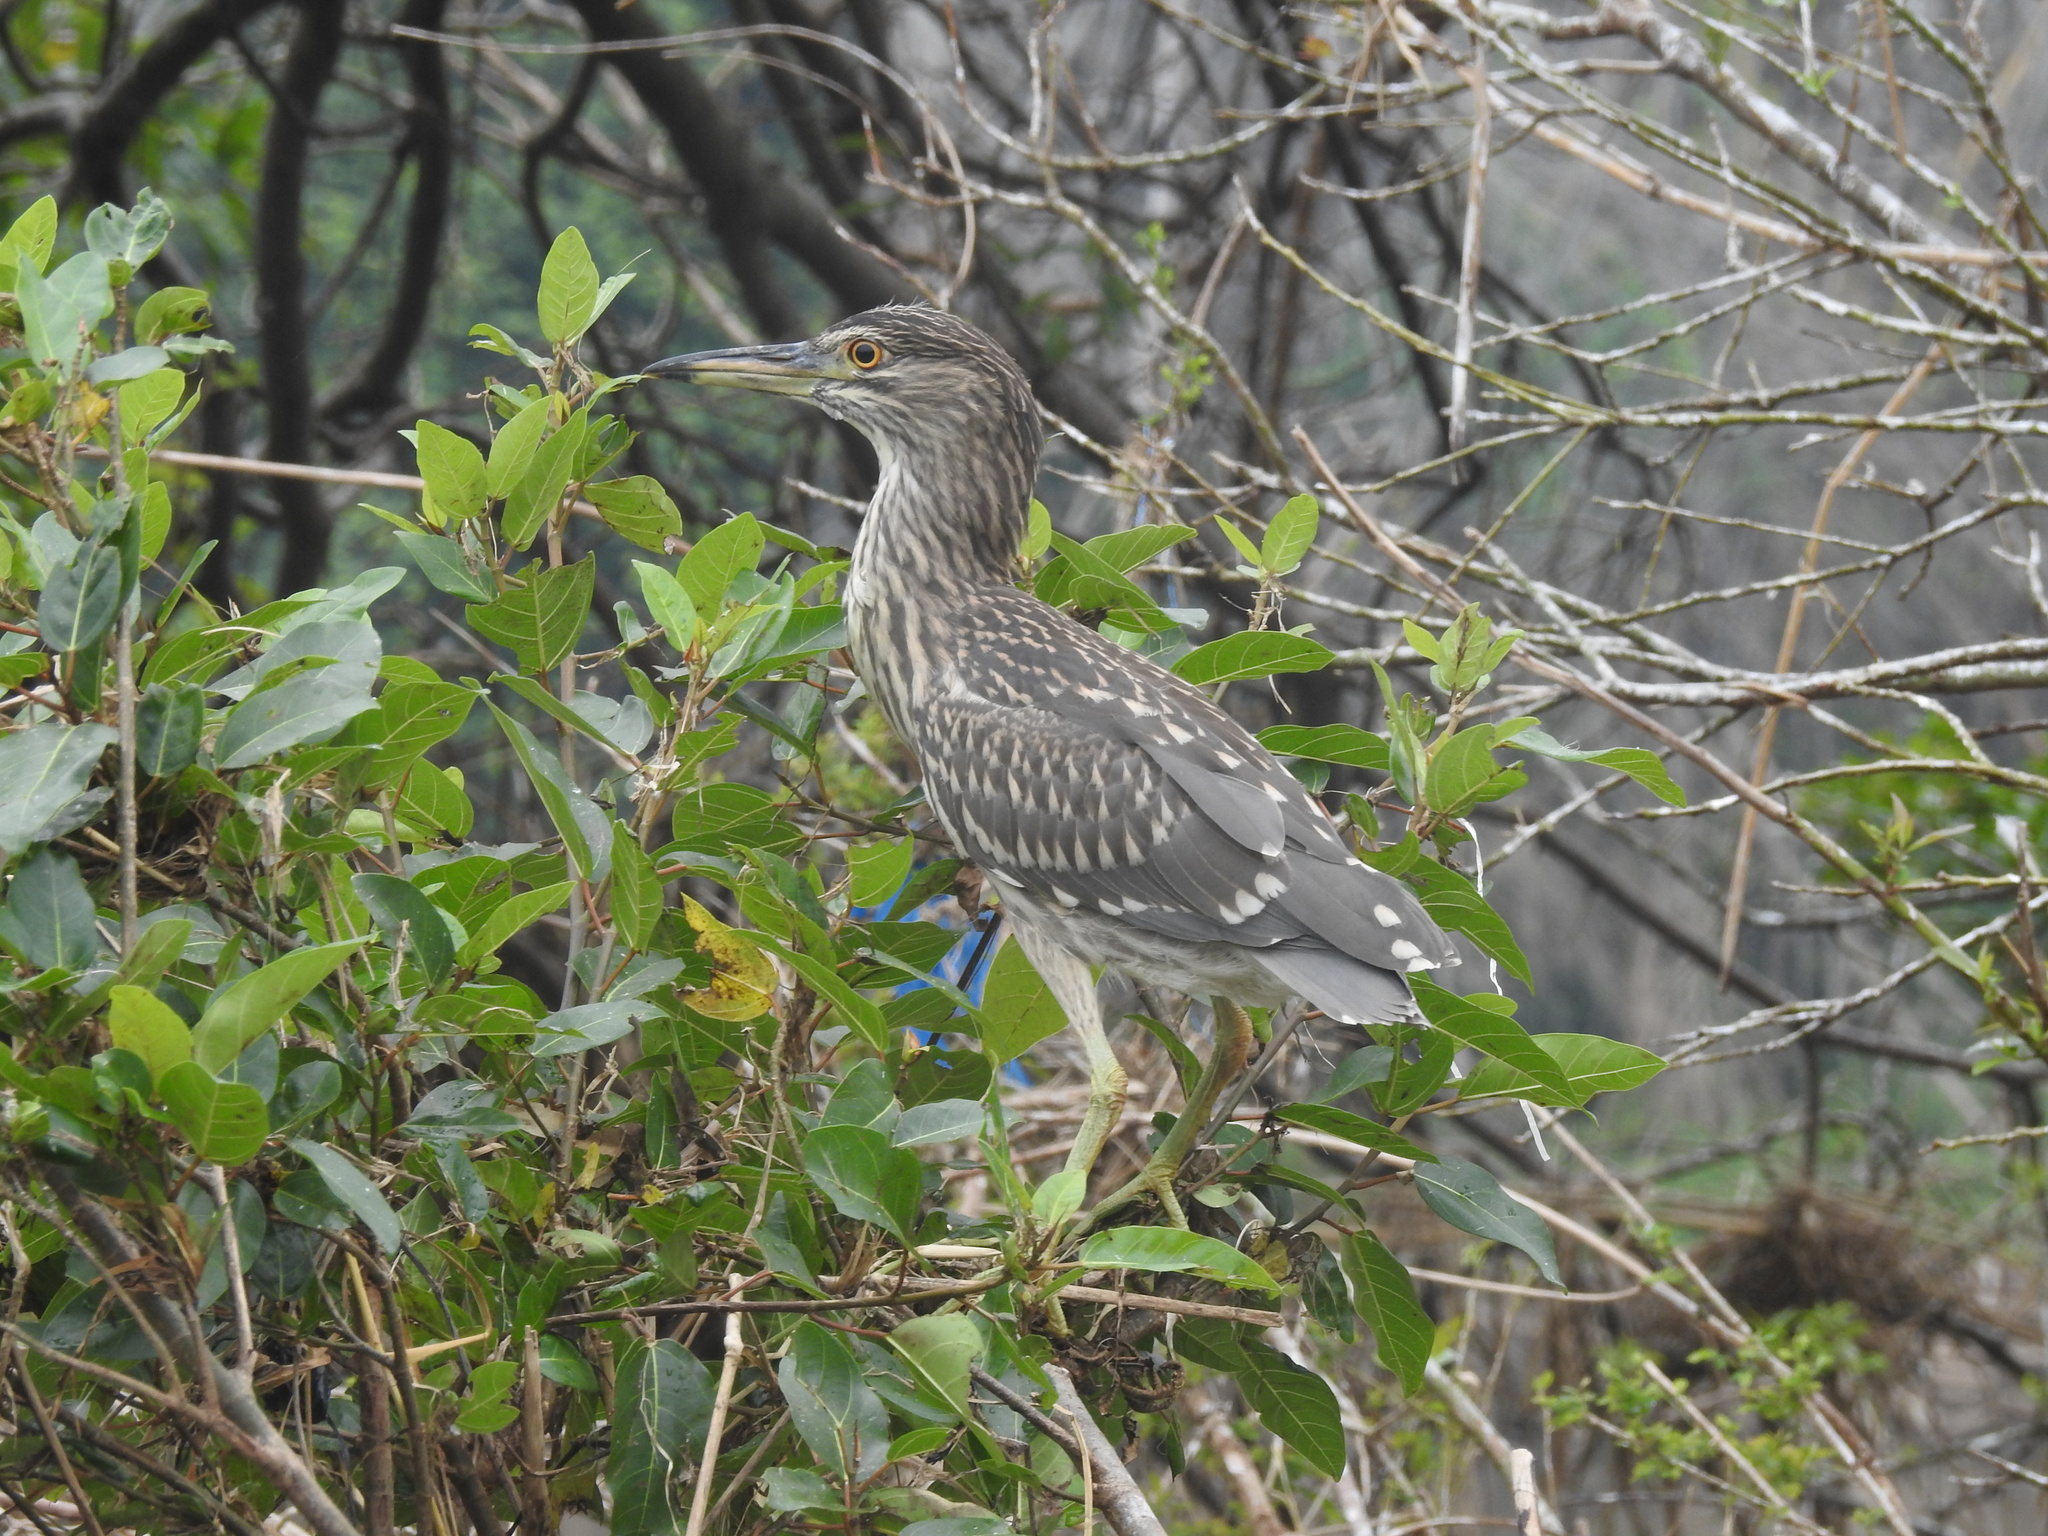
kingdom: Animalia
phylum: Chordata
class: Aves
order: Pelecaniformes
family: Ardeidae
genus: Nycticorax
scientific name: Nycticorax nycticorax
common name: Black-crowned night heron
